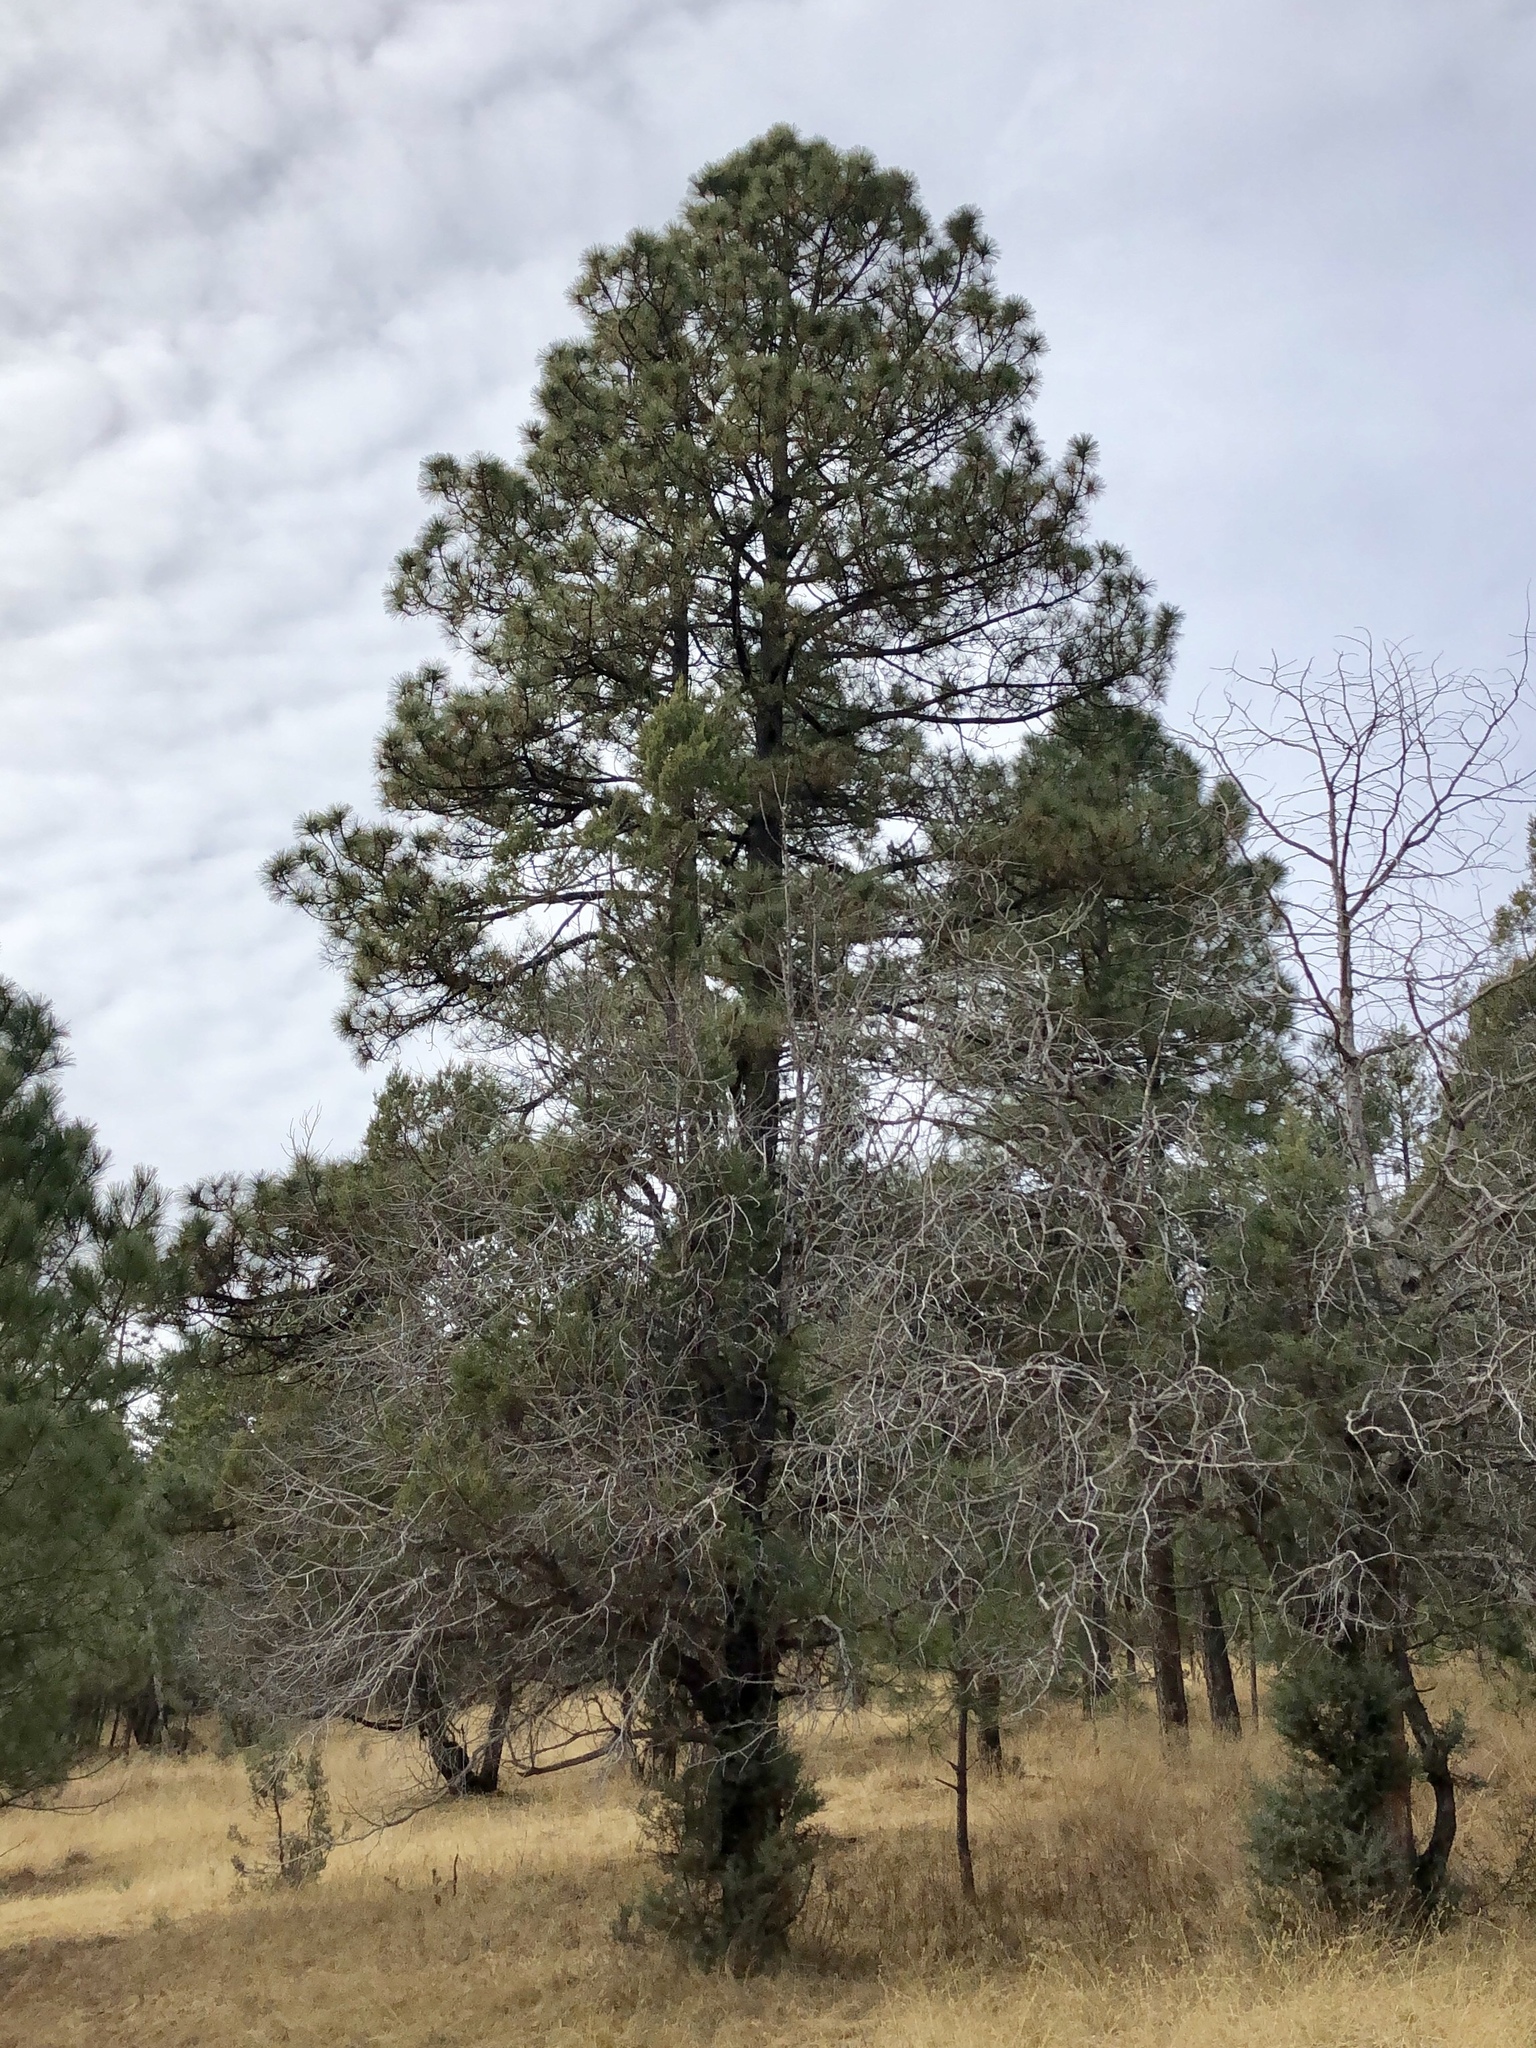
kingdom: Plantae
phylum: Tracheophyta
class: Pinopsida
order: Pinales
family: Pinaceae
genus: Pinus
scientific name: Pinus ponderosa
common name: Western yellow-pine
